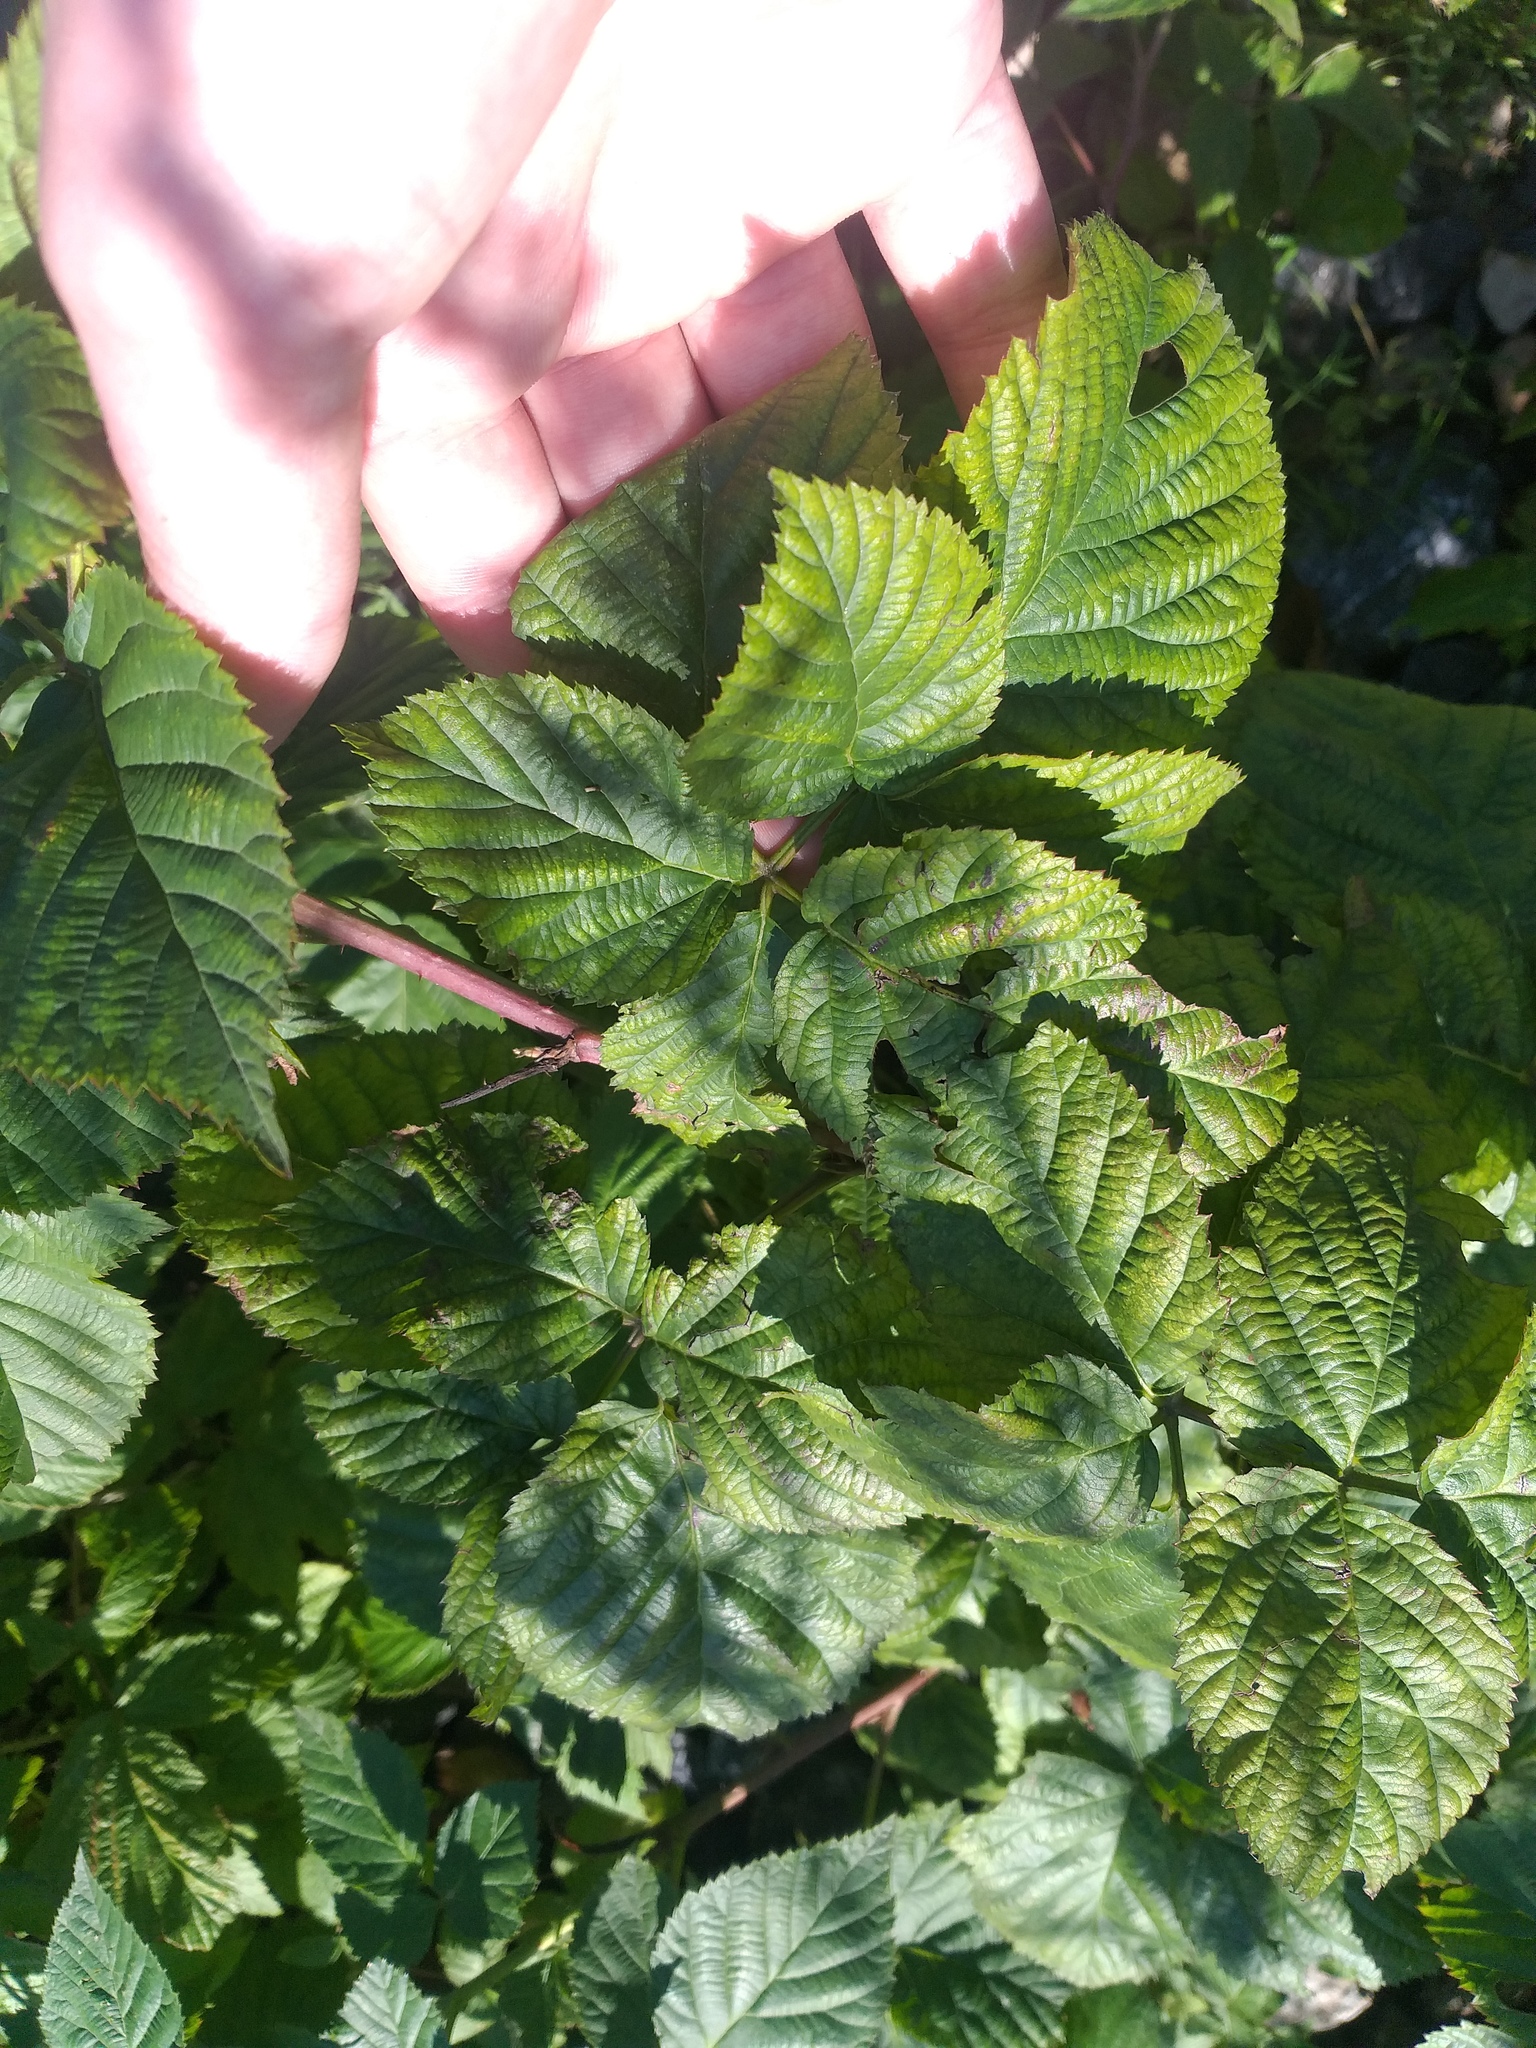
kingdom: Plantae
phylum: Tracheophyta
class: Magnoliopsida
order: Rosales
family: Rosaceae
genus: Rubus
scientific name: Rubus polonicus
